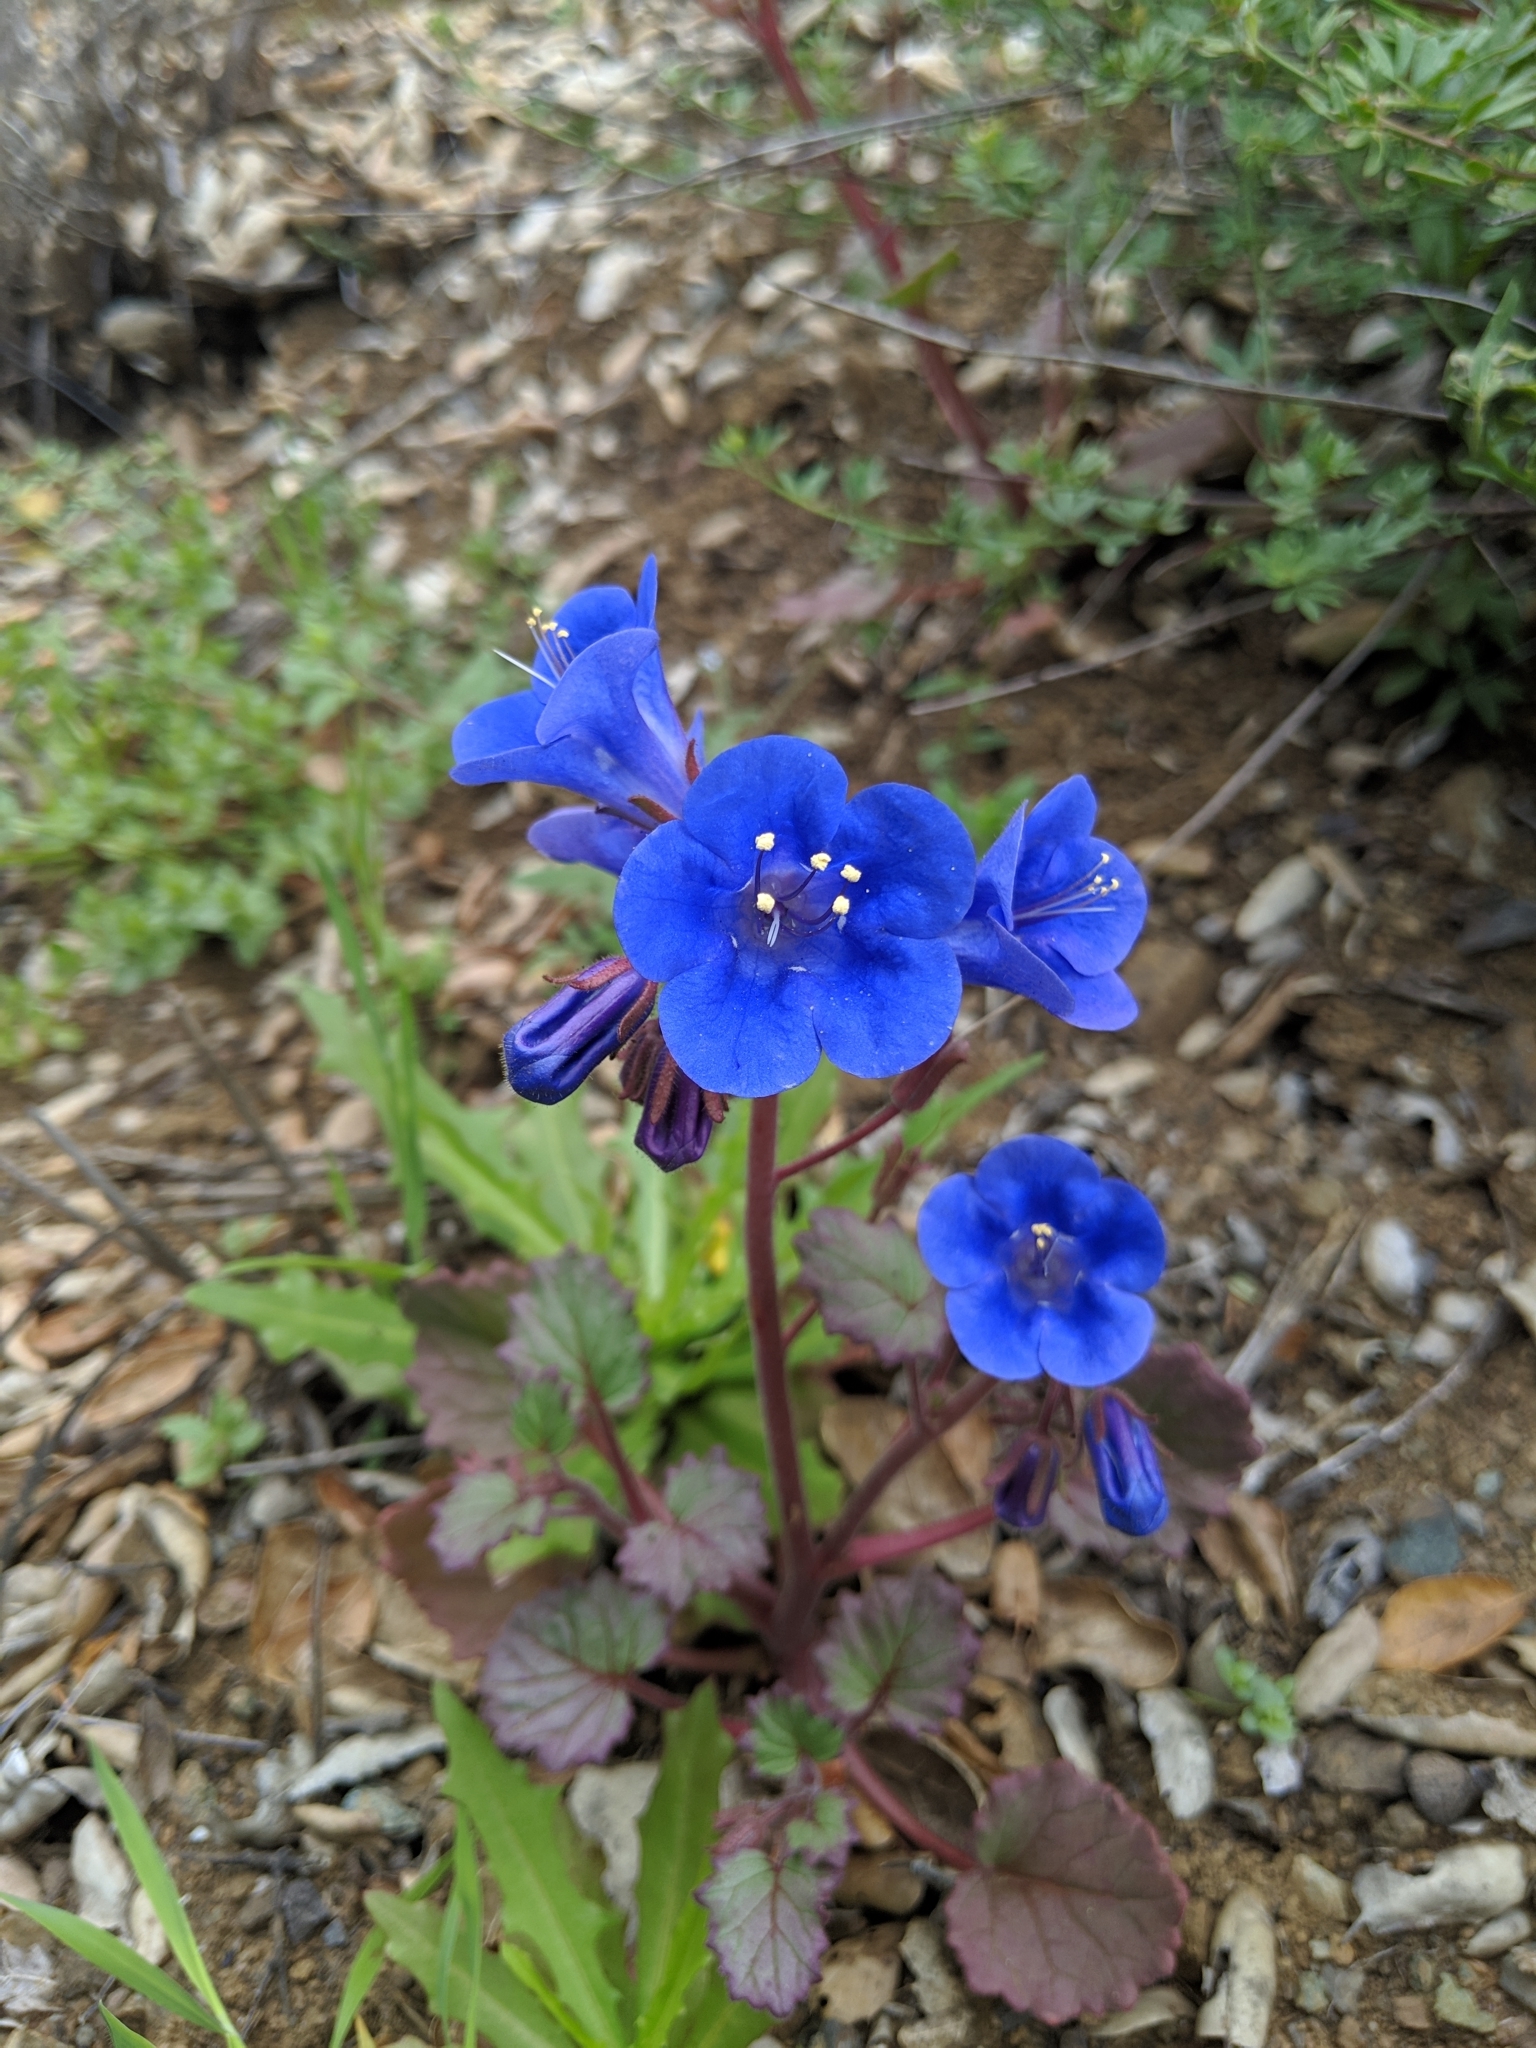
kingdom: Plantae
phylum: Tracheophyta
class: Magnoliopsida
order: Boraginales
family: Hydrophyllaceae
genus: Phacelia
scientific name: Phacelia campanularia
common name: California bluebell
